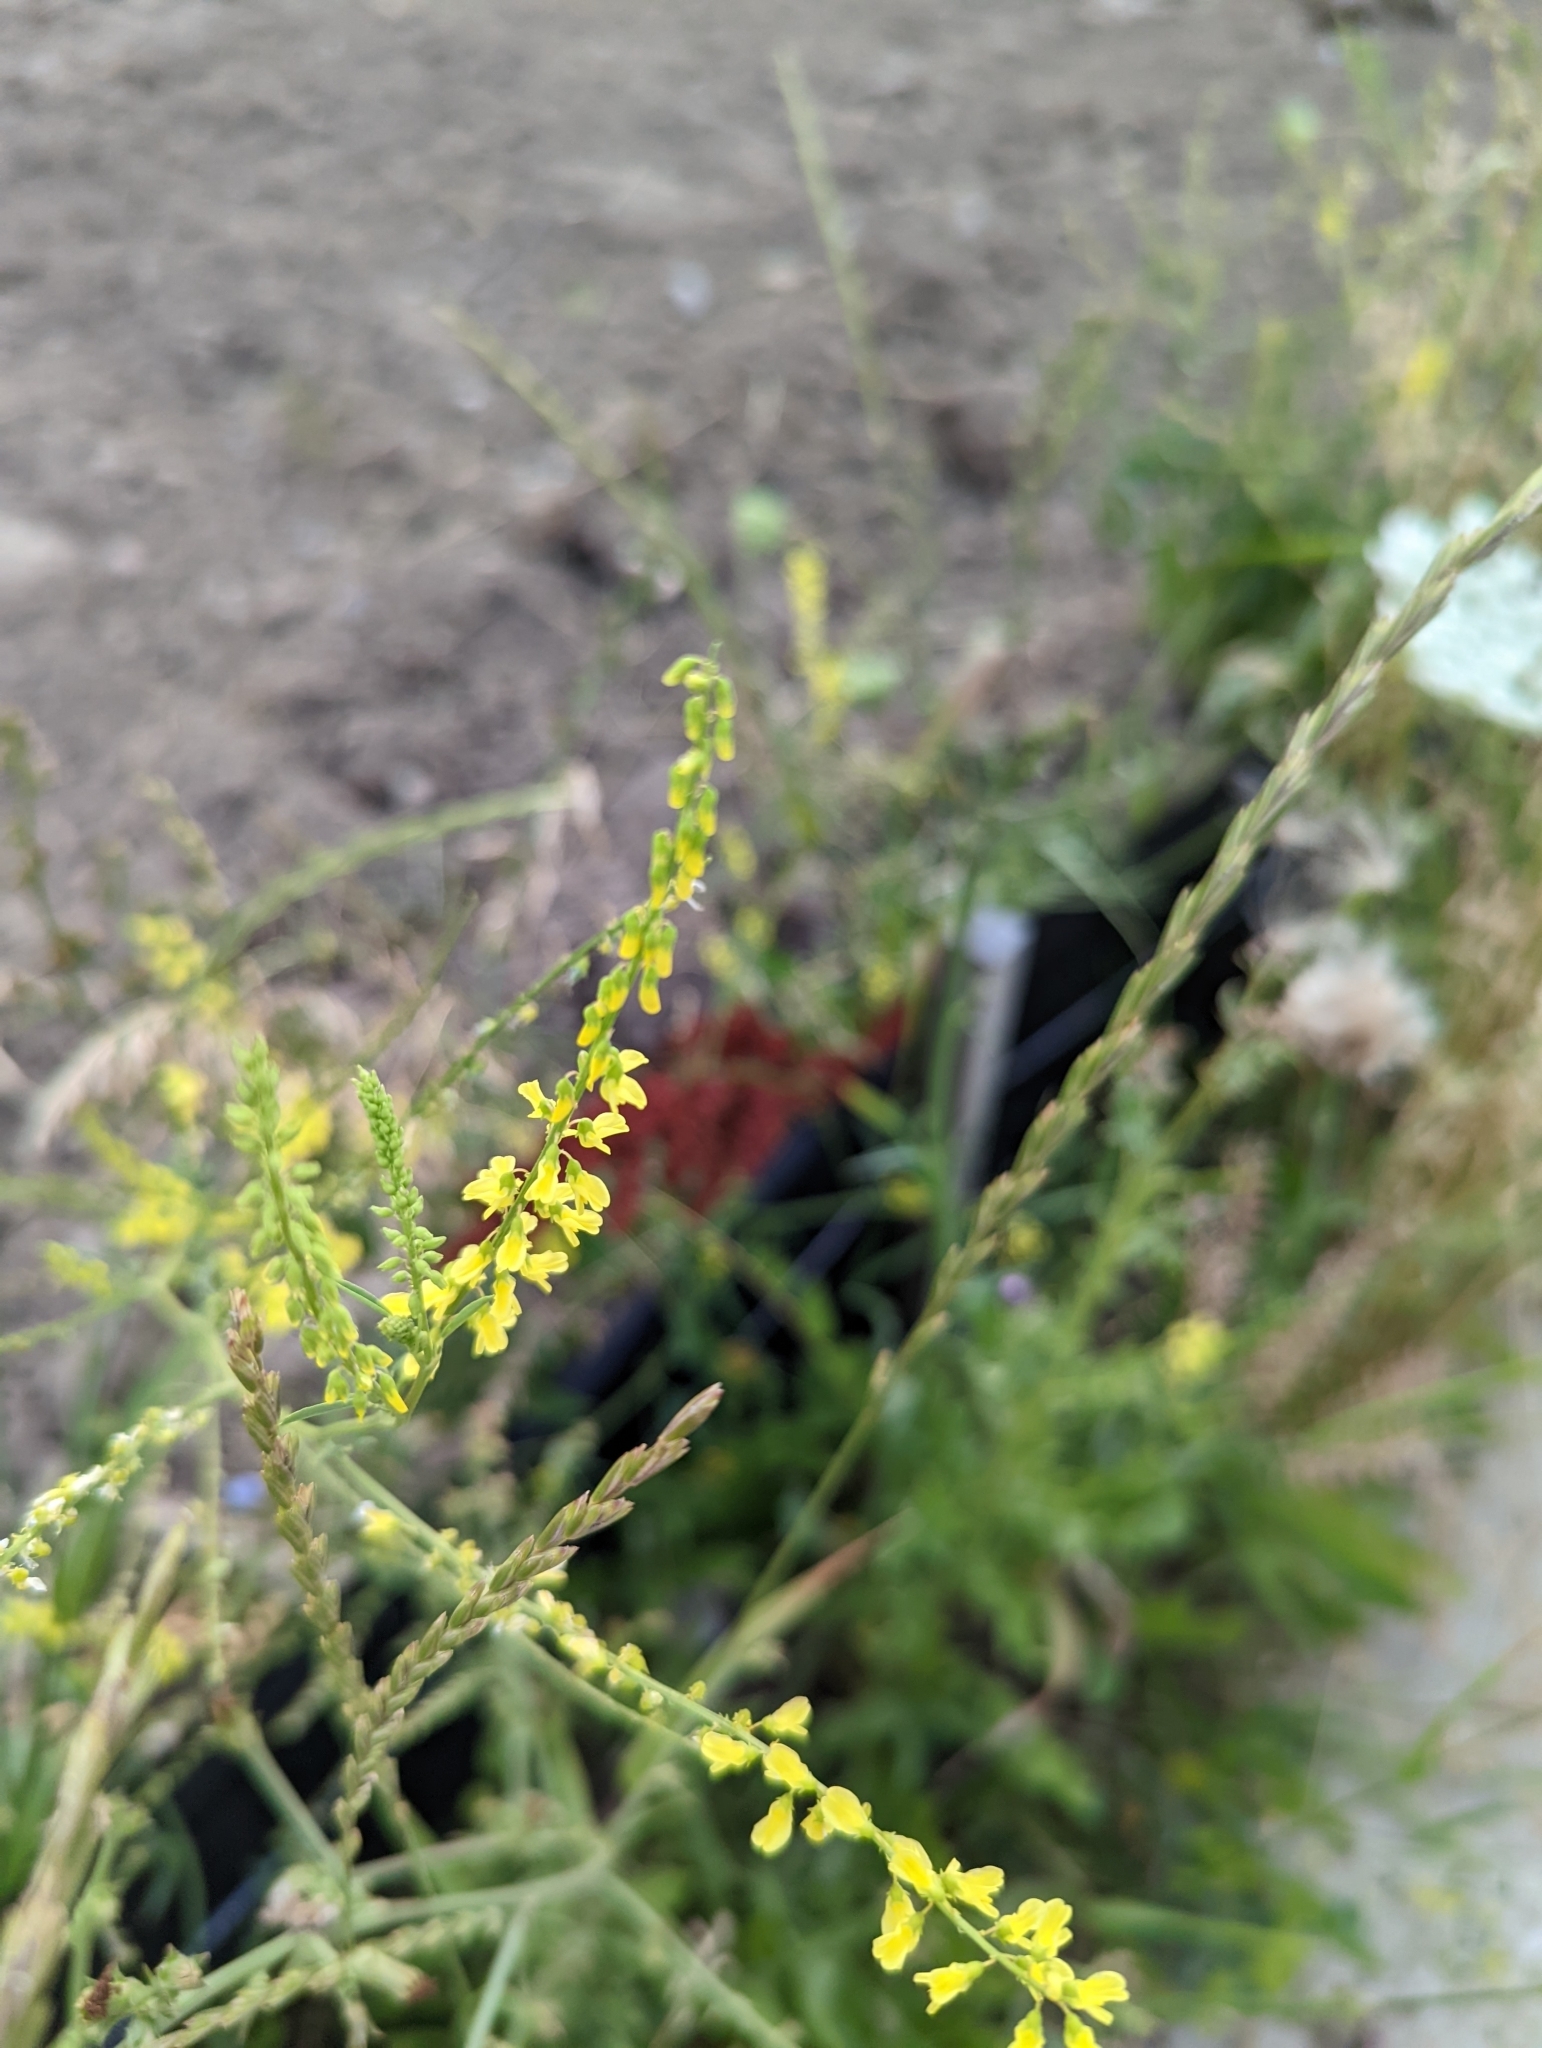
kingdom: Plantae
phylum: Tracheophyta
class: Magnoliopsida
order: Fabales
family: Fabaceae
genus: Melilotus
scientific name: Melilotus officinalis
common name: Sweetclover
